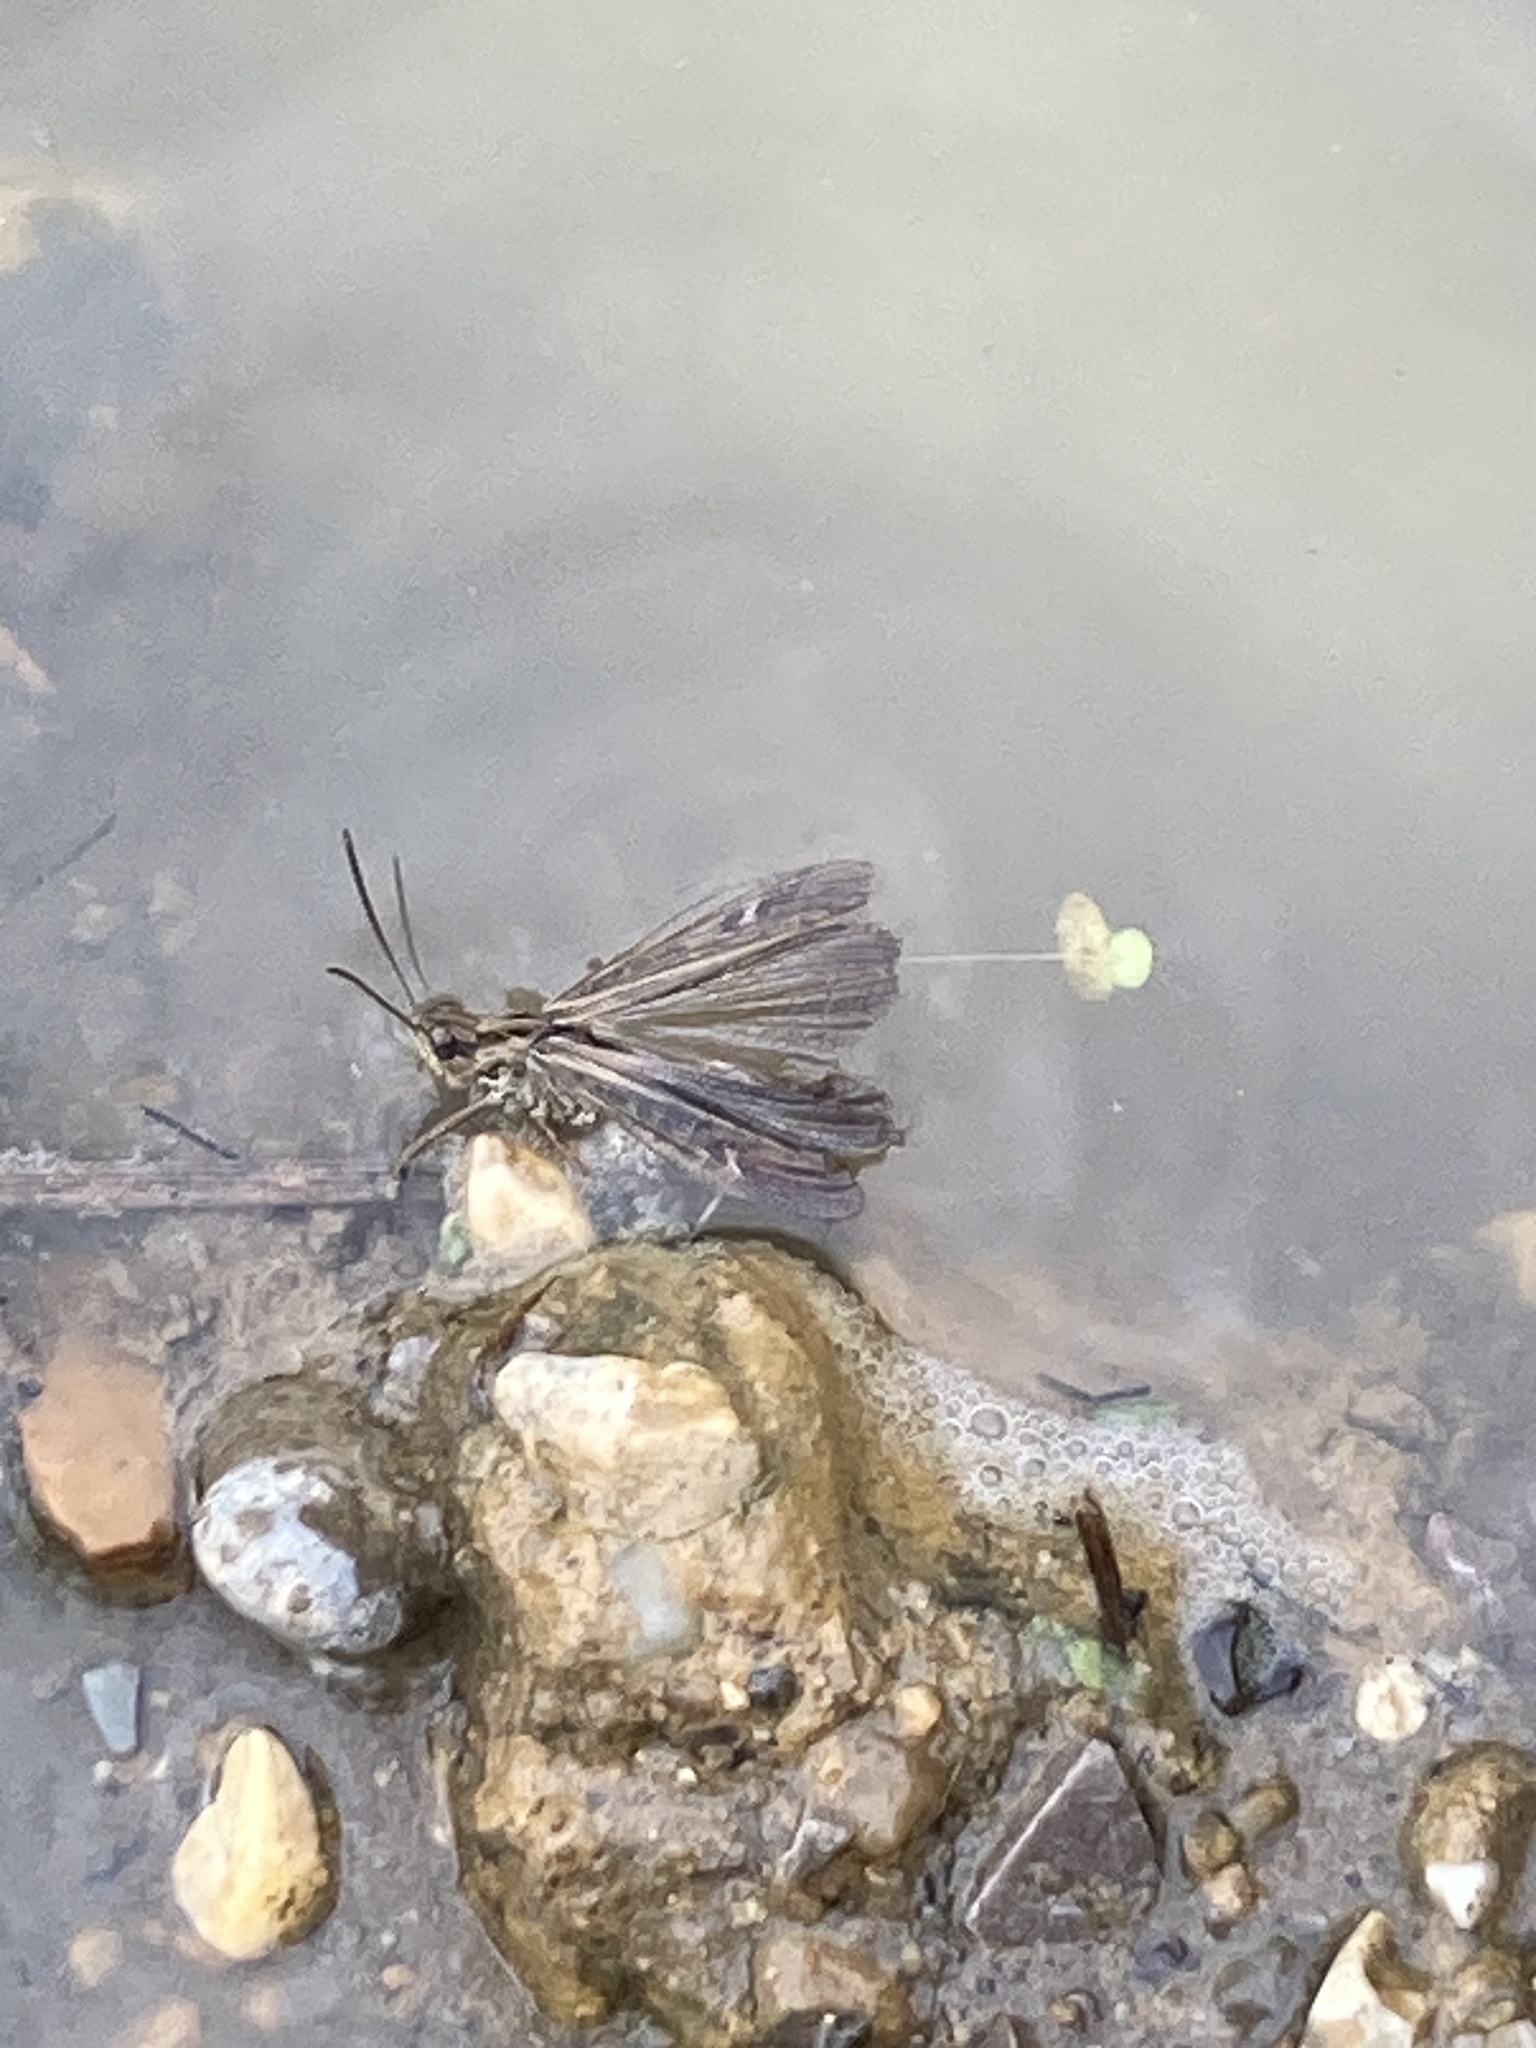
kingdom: Animalia
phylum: Arthropoda
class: Insecta
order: Orthoptera
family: Acrididae
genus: Chorthippus
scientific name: Chorthippus brunneus
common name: Field grasshopper
